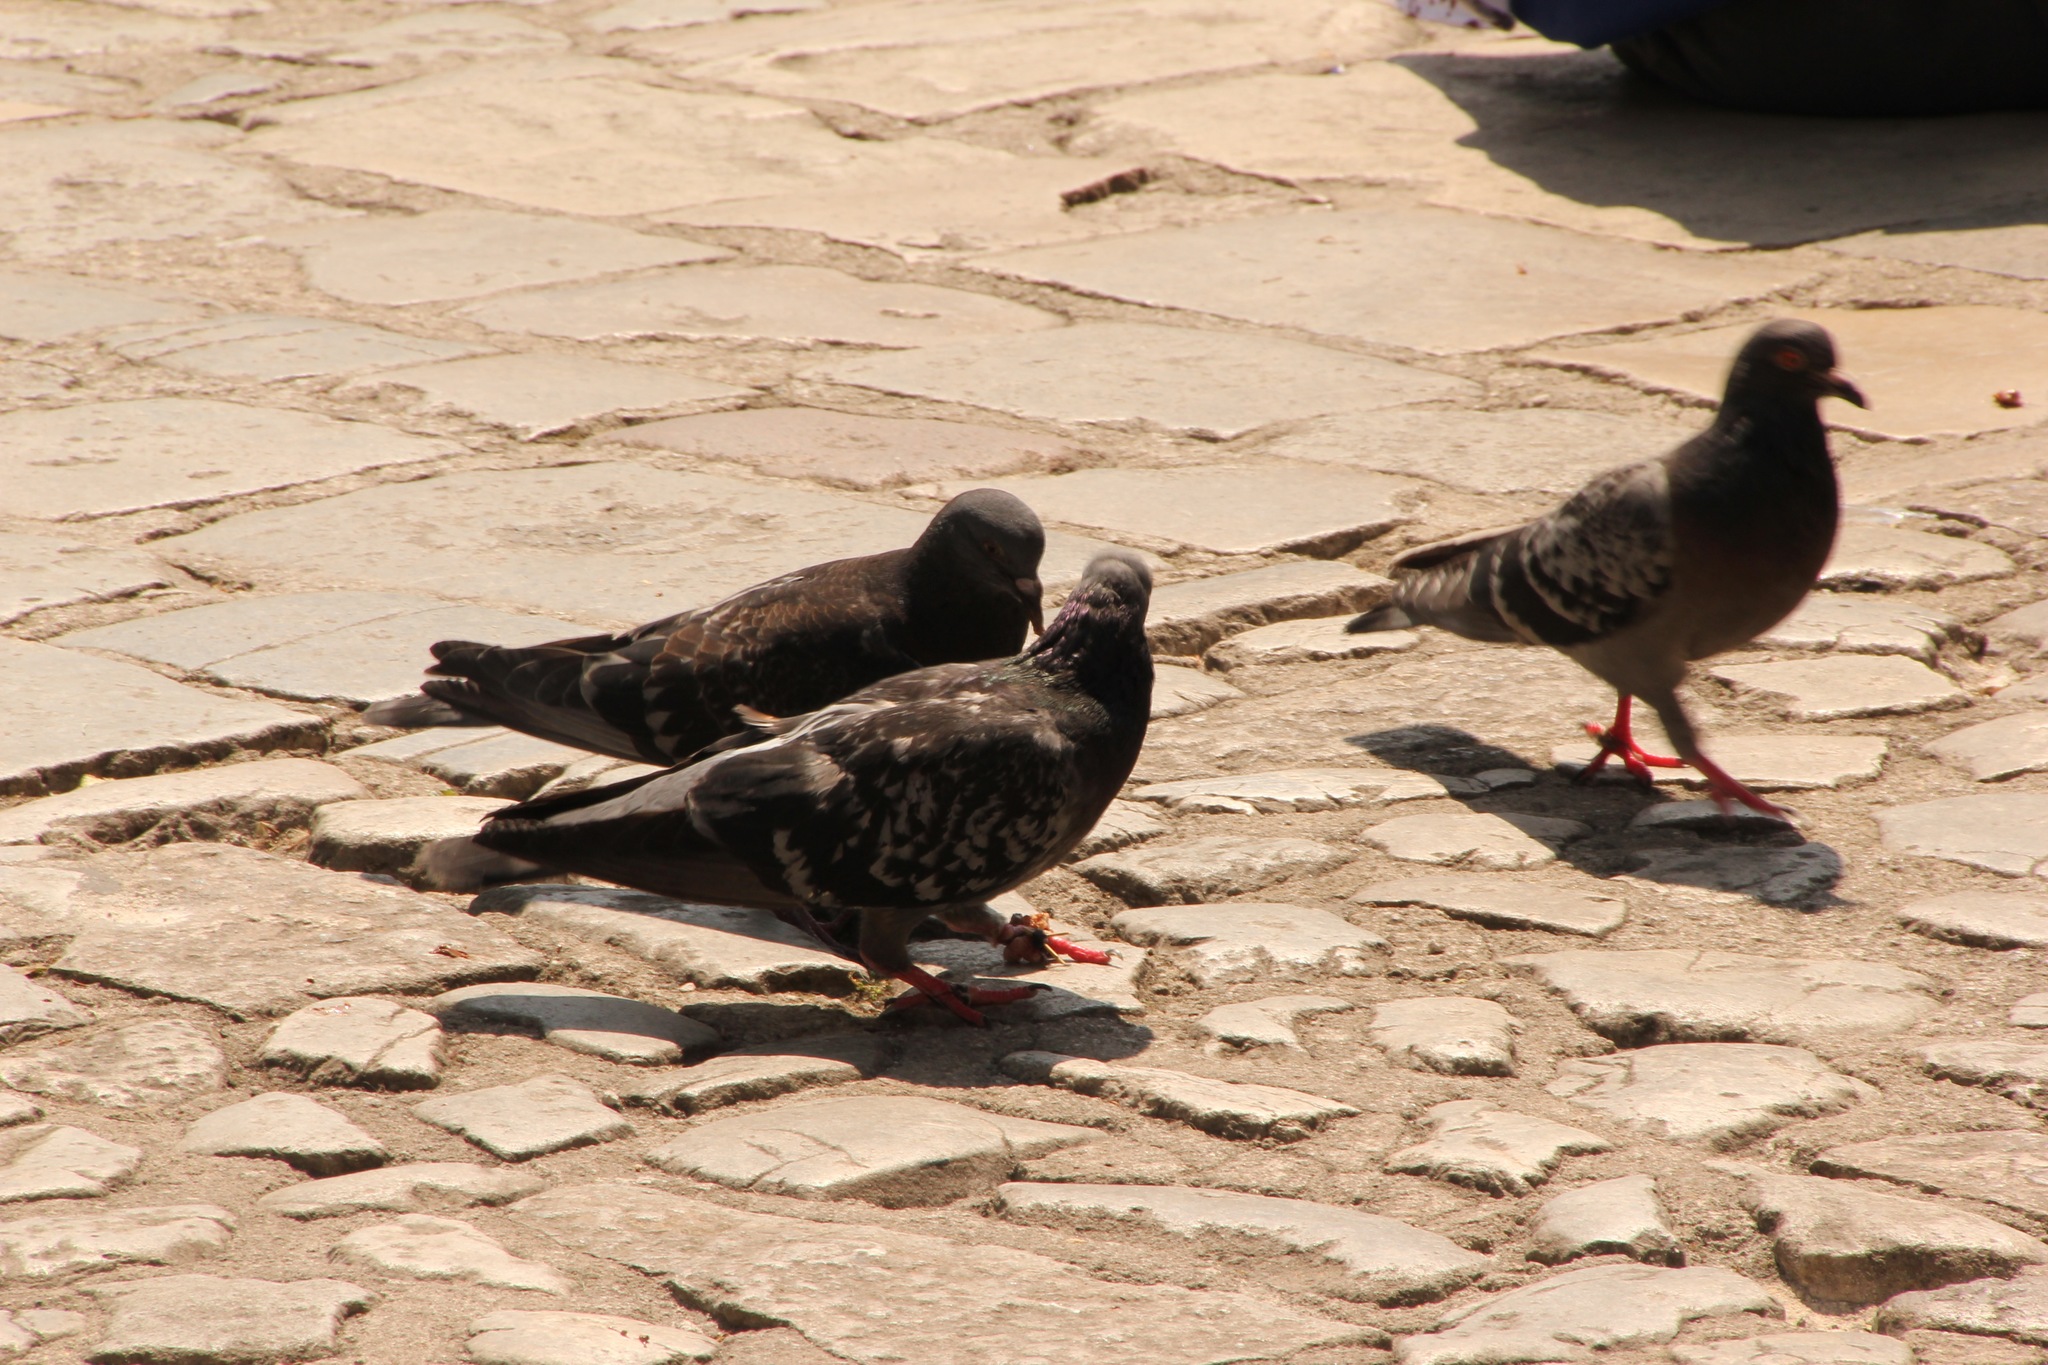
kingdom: Animalia
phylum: Chordata
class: Aves
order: Columbiformes
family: Columbidae
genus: Columba
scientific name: Columba livia
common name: Rock pigeon
